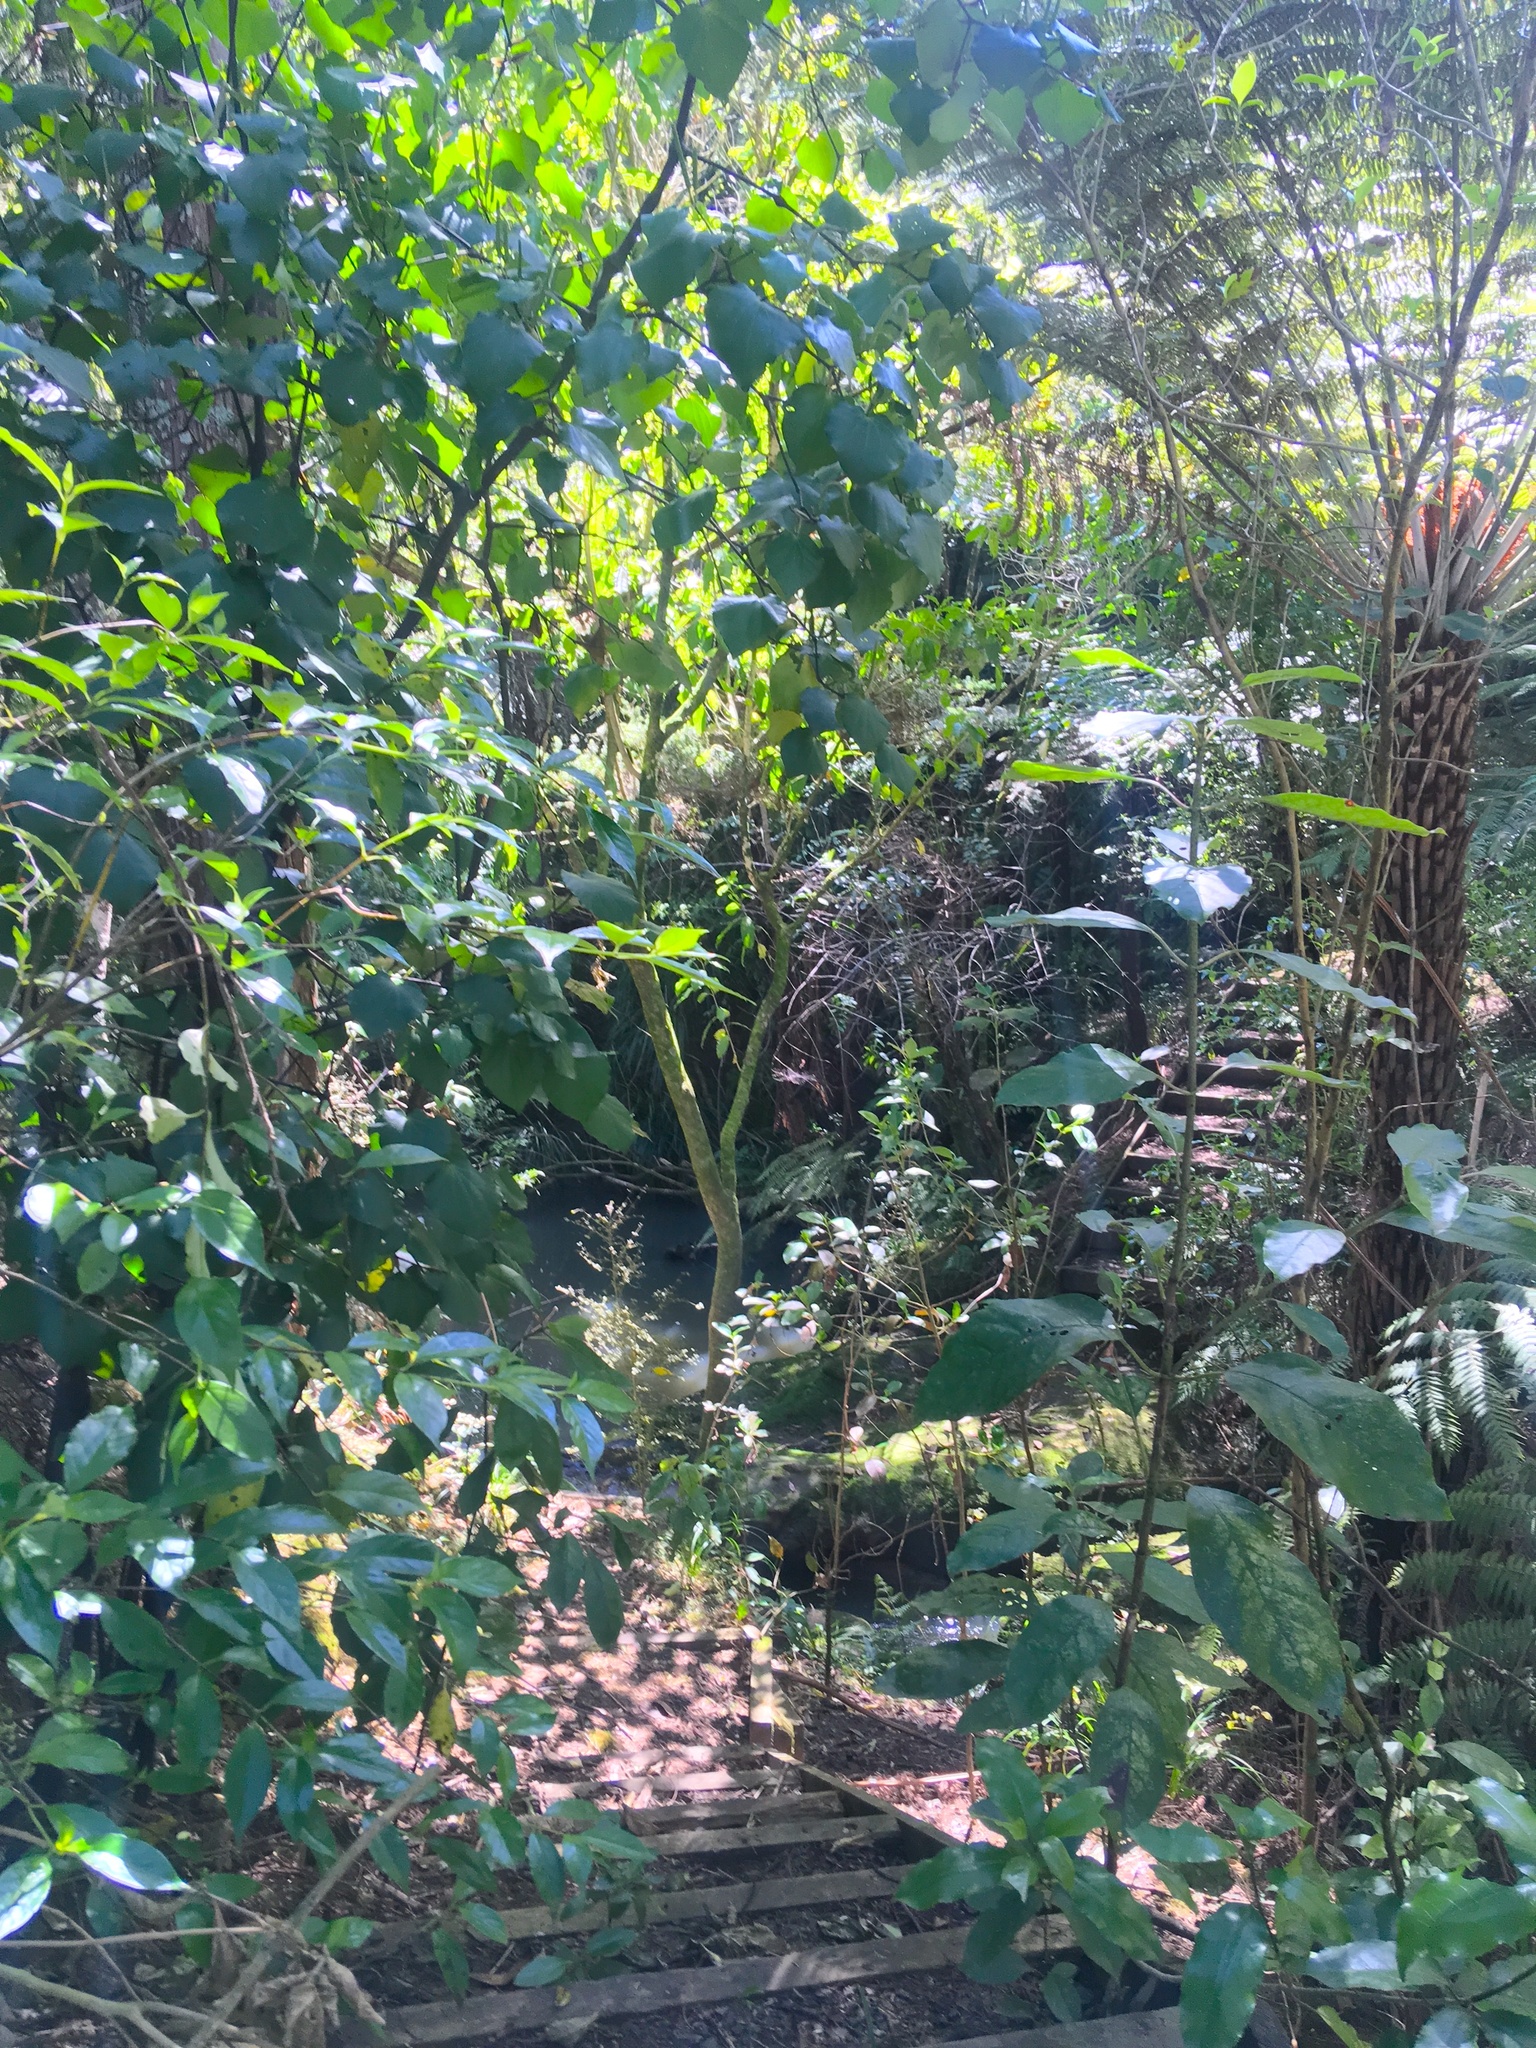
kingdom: Plantae
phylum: Tracheophyta
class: Magnoliopsida
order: Gentianales
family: Loganiaceae
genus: Geniostoma
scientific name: Geniostoma ligustrifolium
